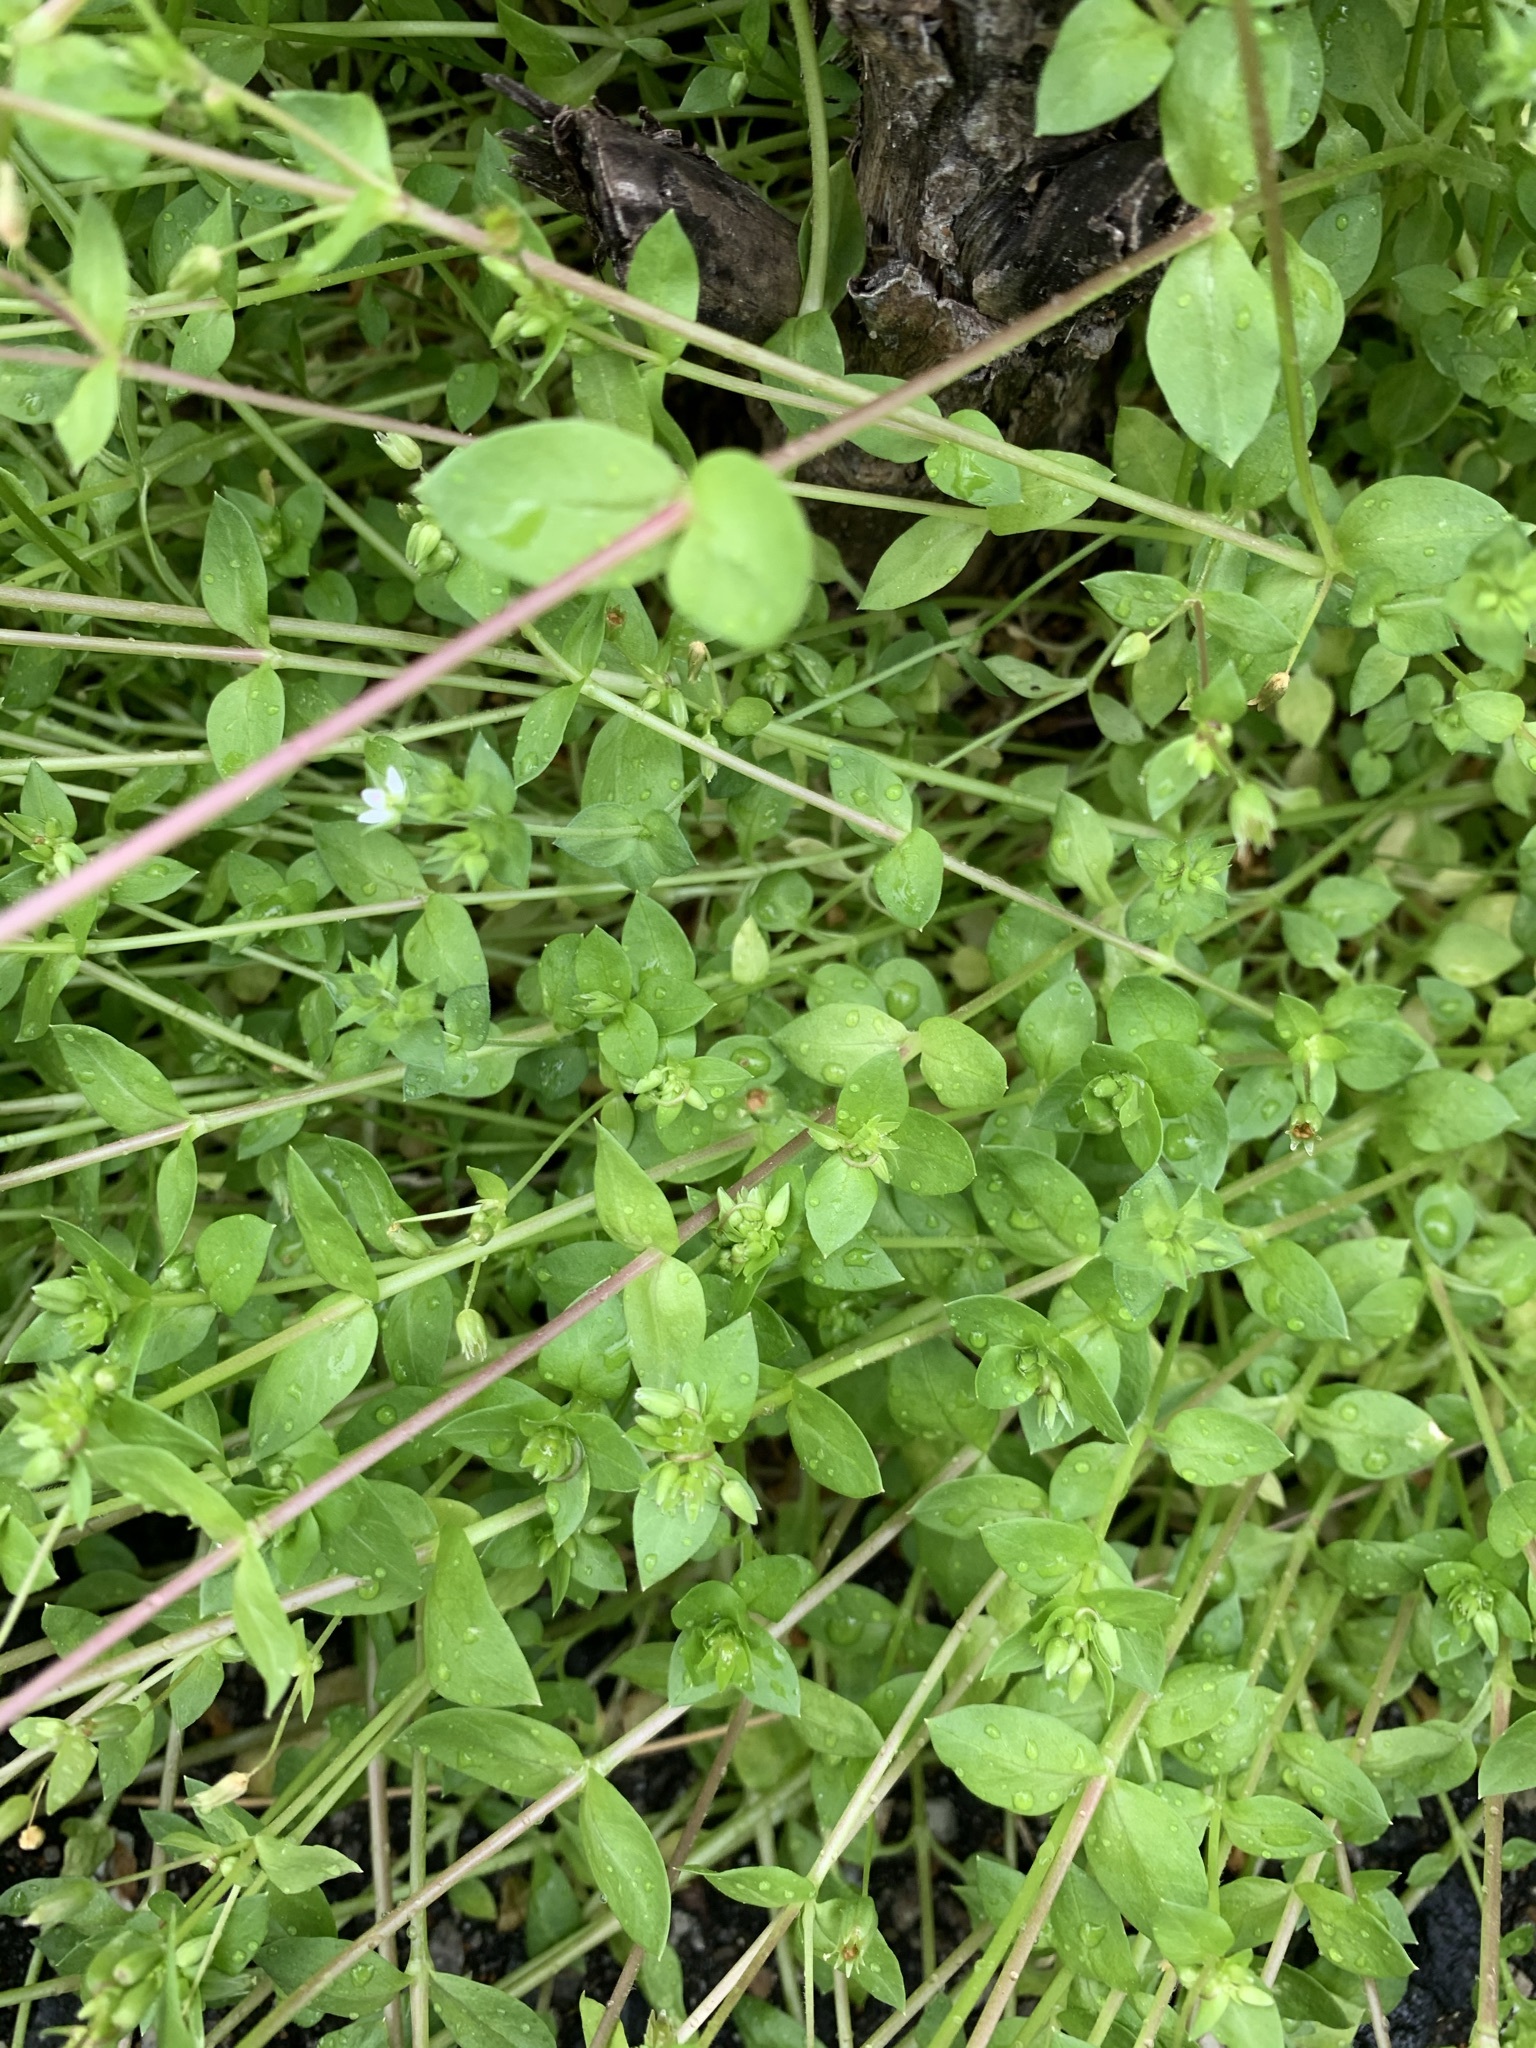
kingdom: Plantae
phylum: Tracheophyta
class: Magnoliopsida
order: Caryophyllales
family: Caryophyllaceae
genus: Stellaria
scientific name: Stellaria media
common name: Common chickweed
